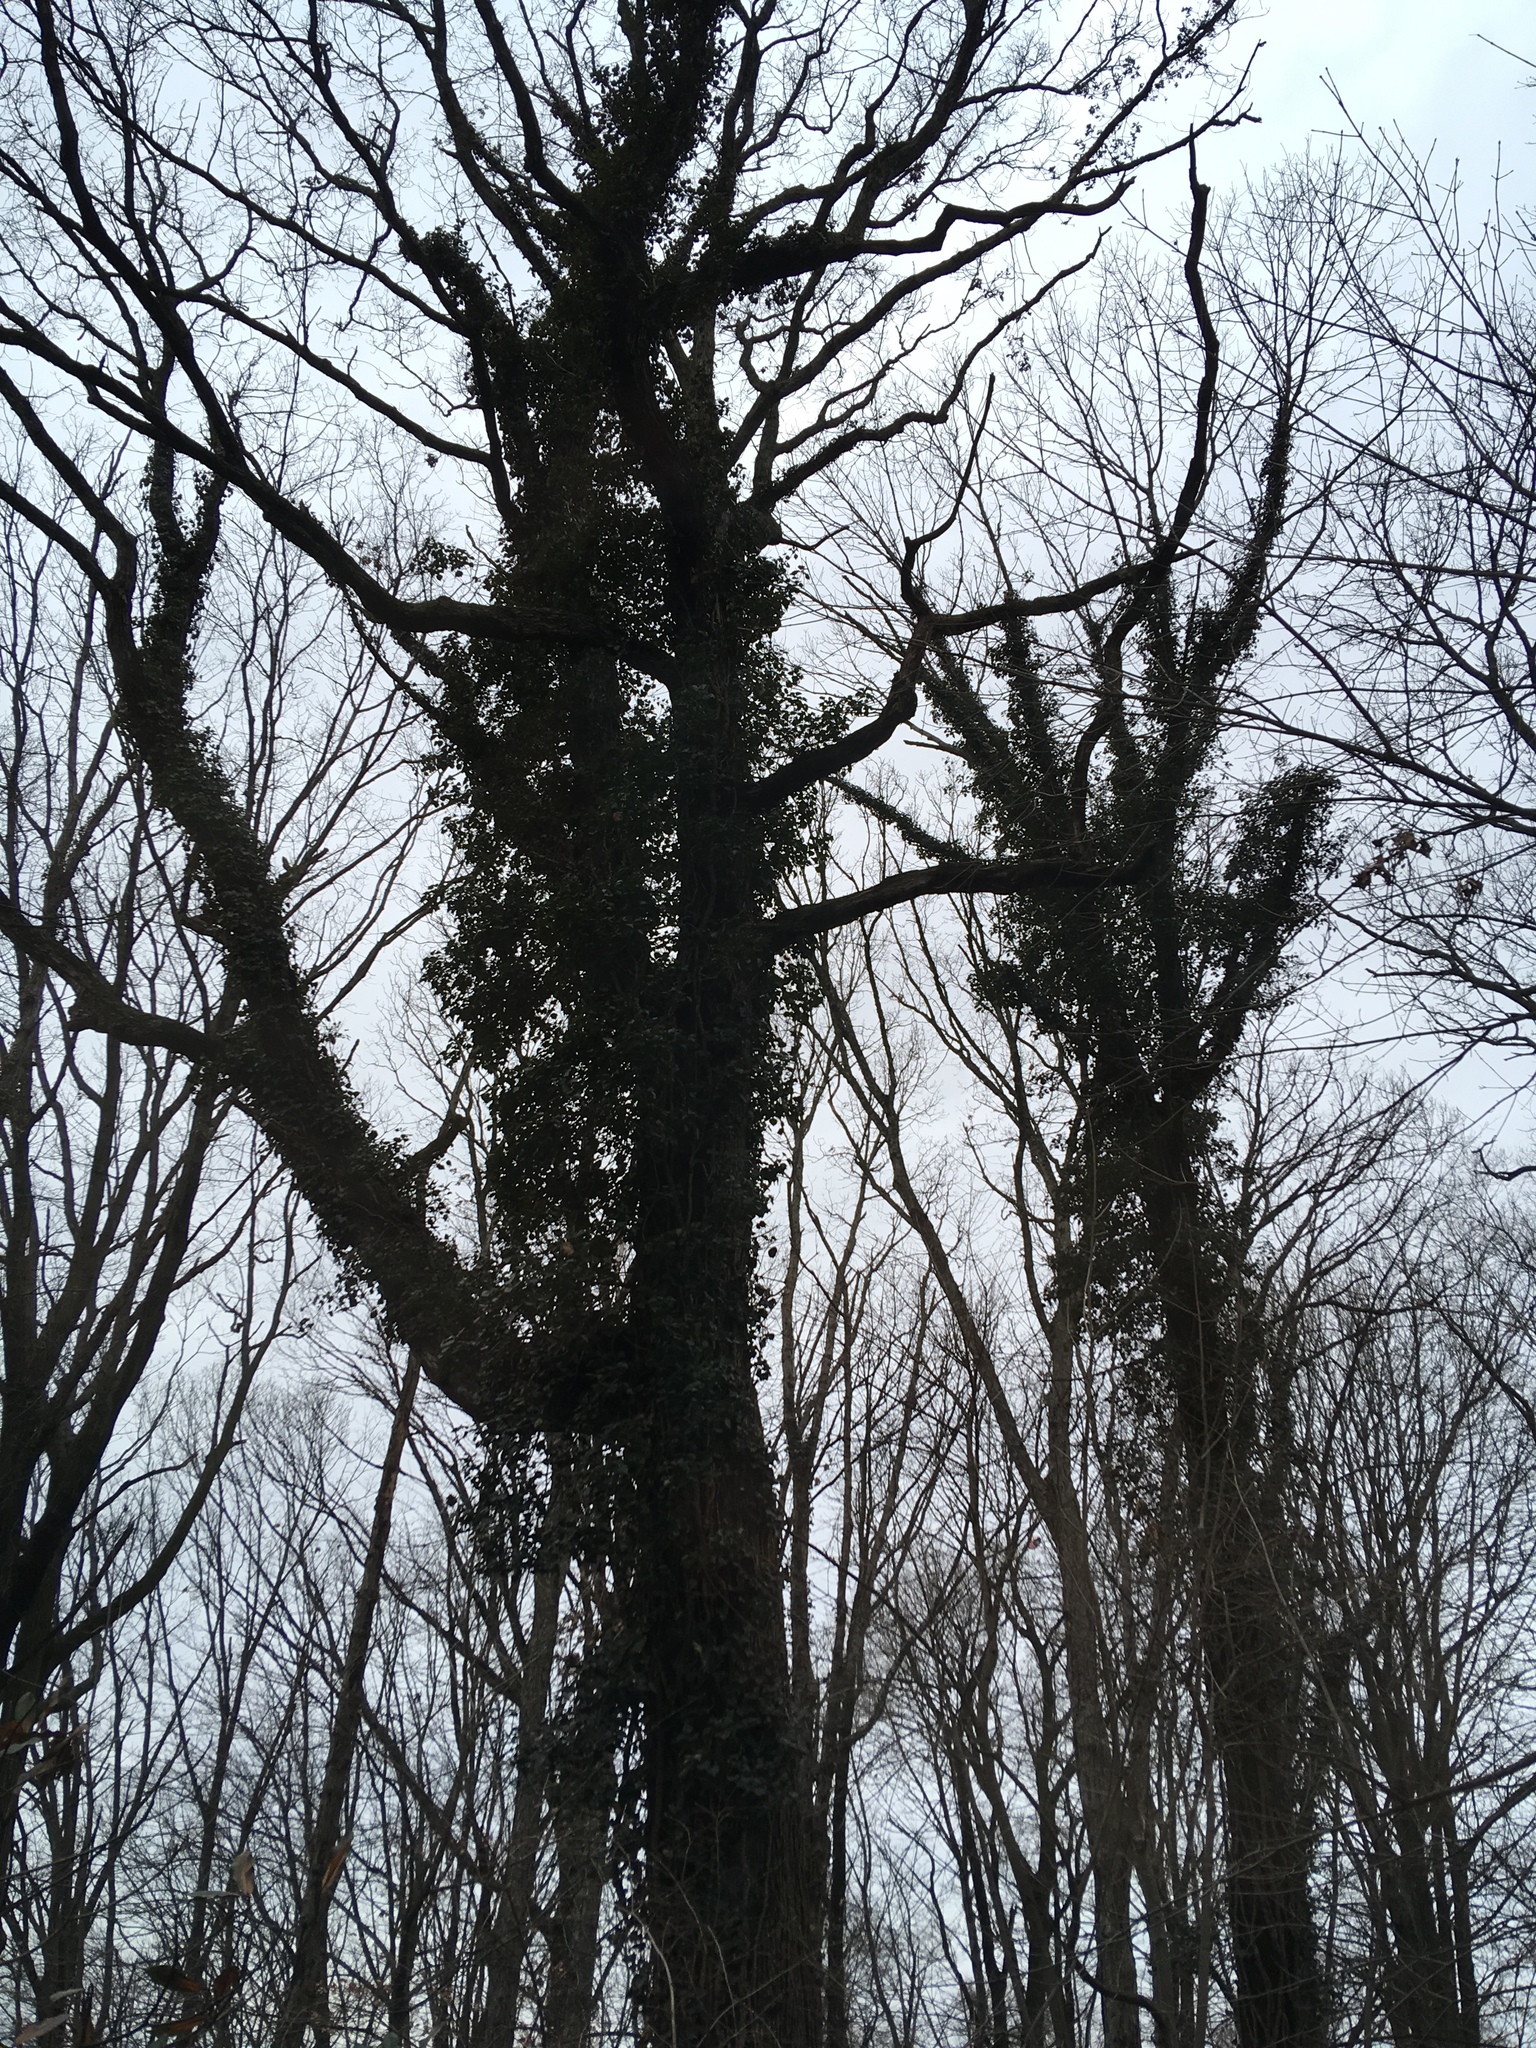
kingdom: Plantae
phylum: Tracheophyta
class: Magnoliopsida
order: Apiales
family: Araliaceae
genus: Hedera
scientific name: Hedera helix
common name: Ivy
